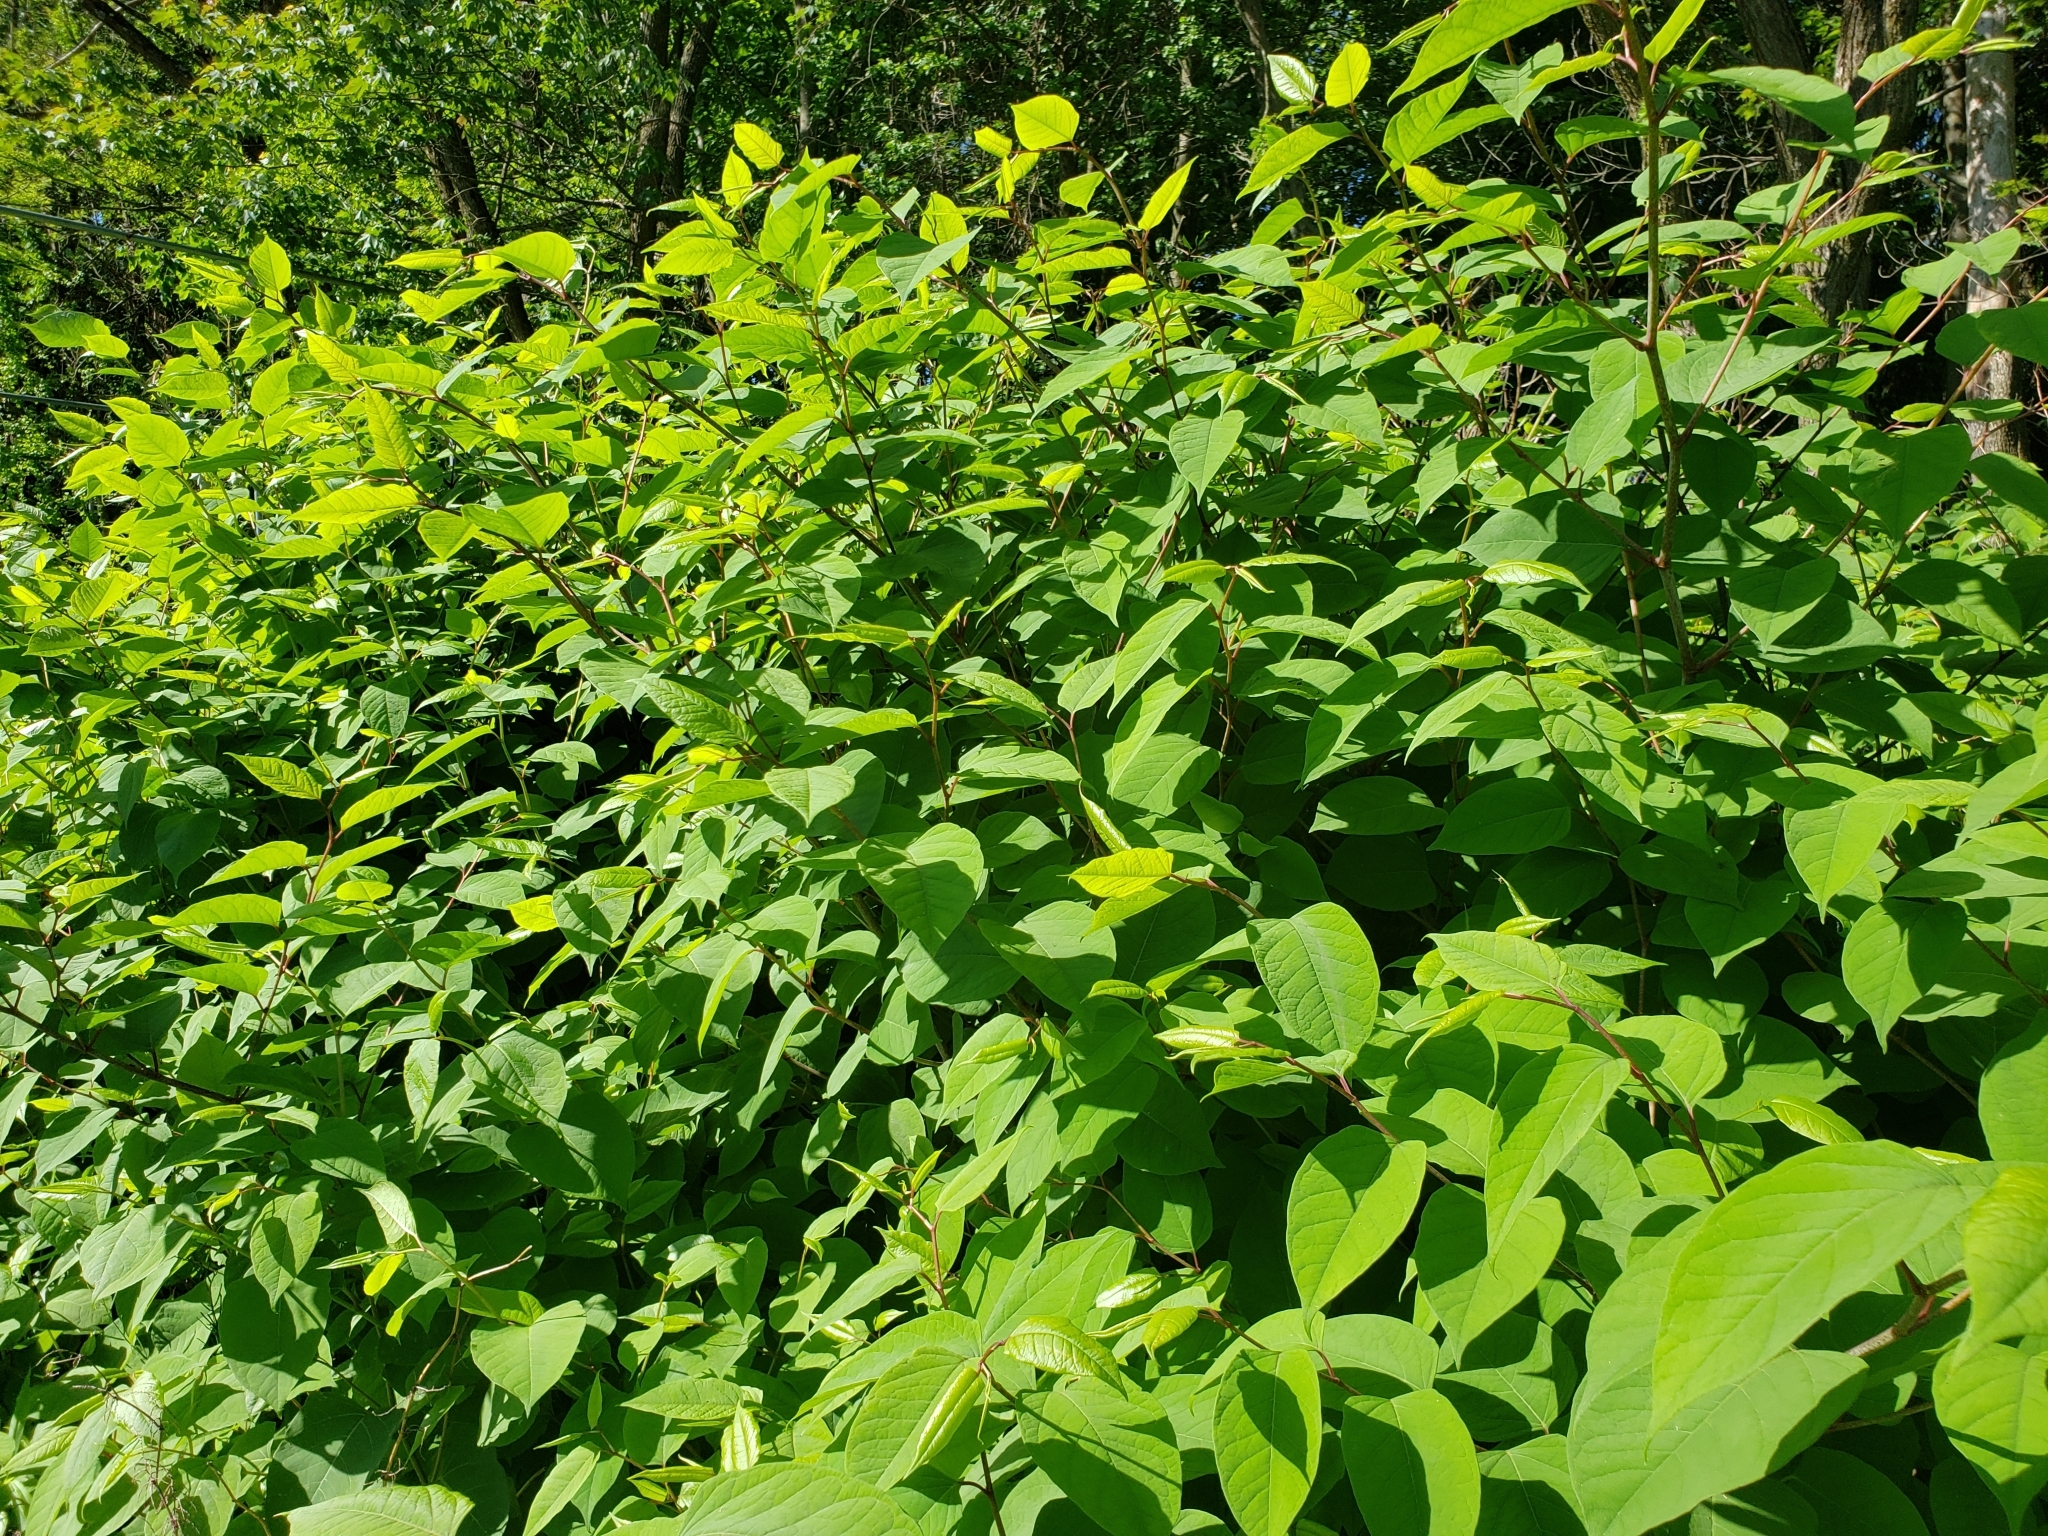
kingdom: Plantae
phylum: Tracheophyta
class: Magnoliopsida
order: Caryophyllales
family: Polygonaceae
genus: Reynoutria
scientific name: Reynoutria japonica
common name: Japanese knotweed
